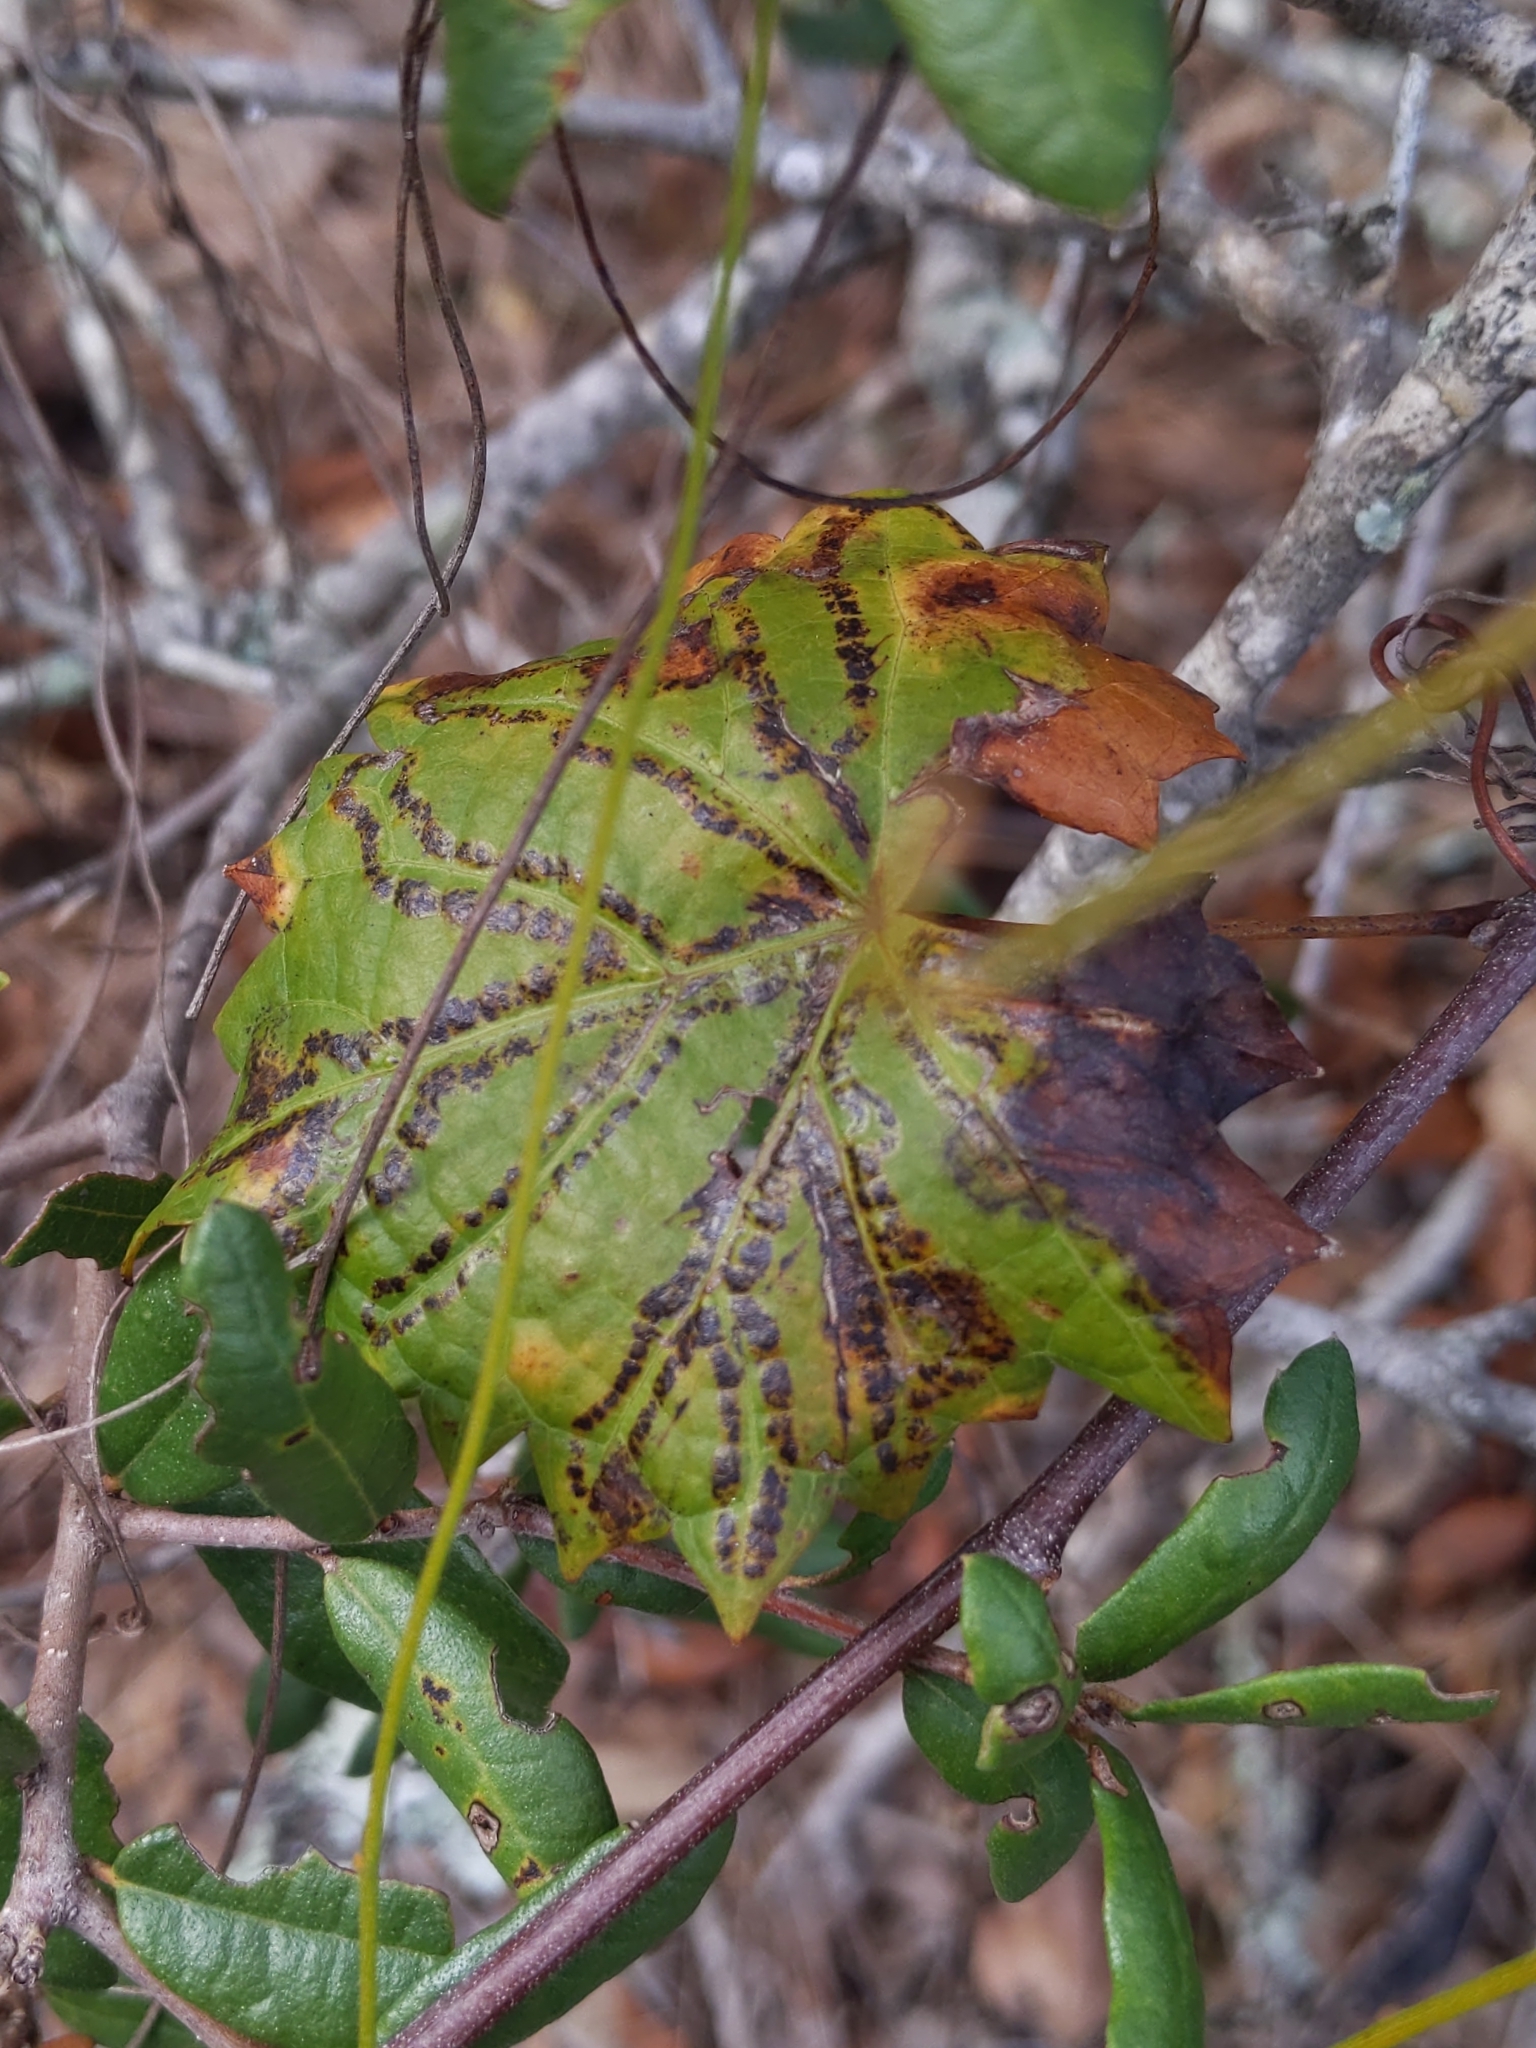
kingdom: Animalia
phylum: Arthropoda
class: Insecta
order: Lepidoptera
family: Gracillariidae
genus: Phyllocnistis
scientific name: Phyllocnistis vitegenella
